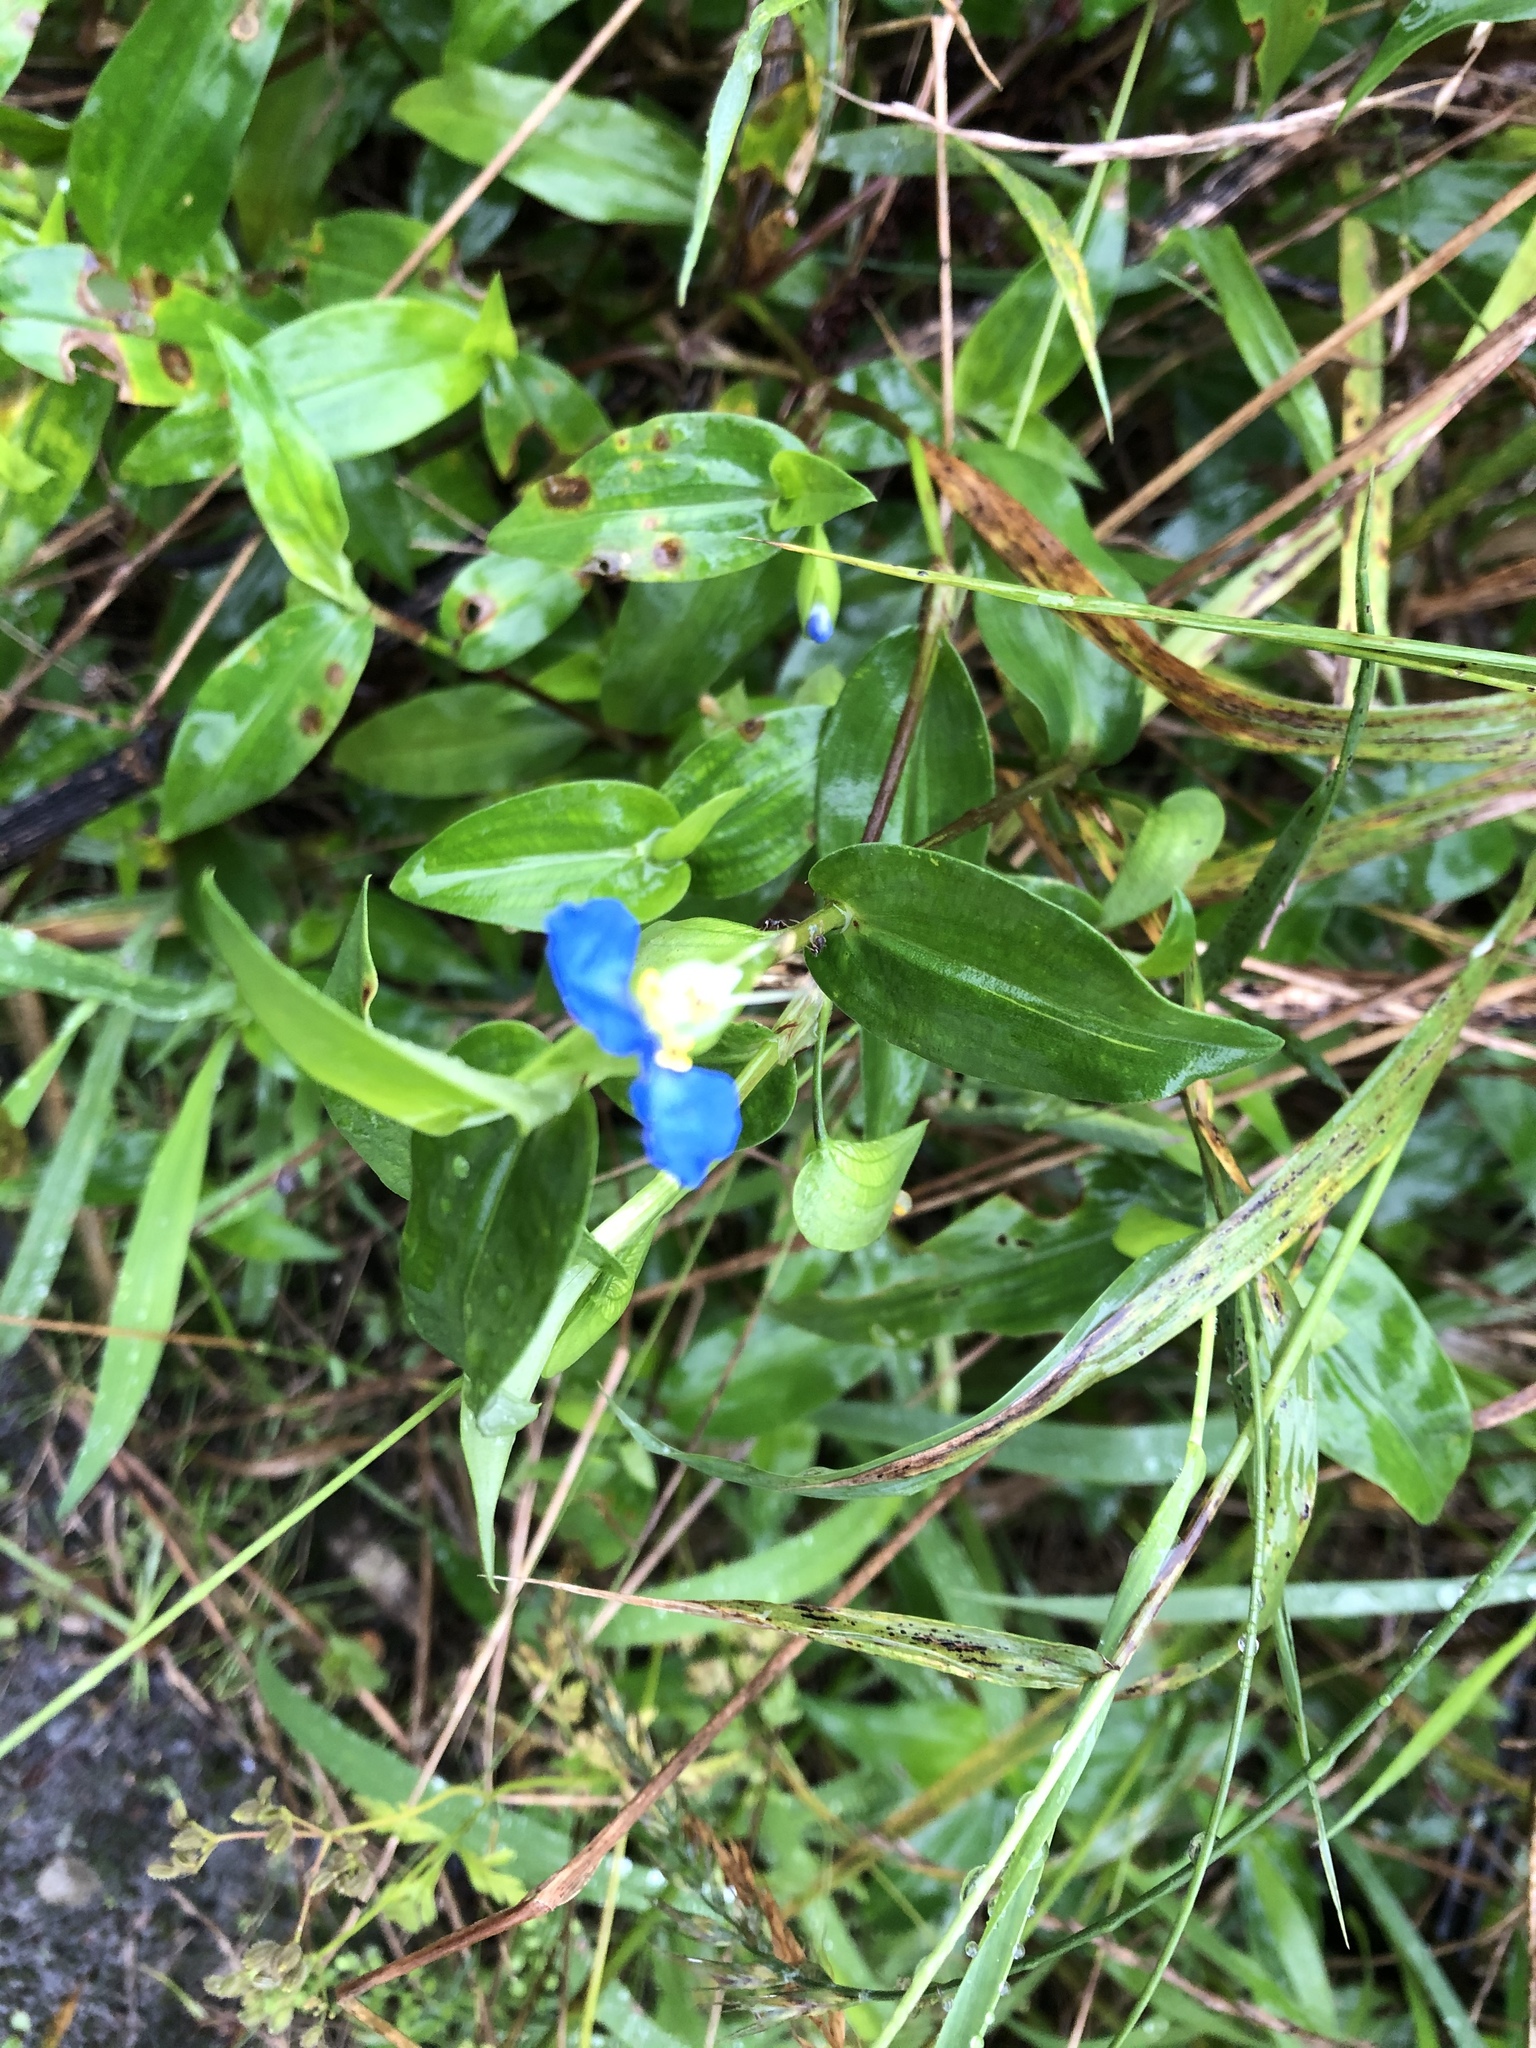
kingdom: Plantae
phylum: Tracheophyta
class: Liliopsida
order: Commelinales
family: Commelinaceae
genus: Commelina
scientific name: Commelina communis
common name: Asiatic dayflower
